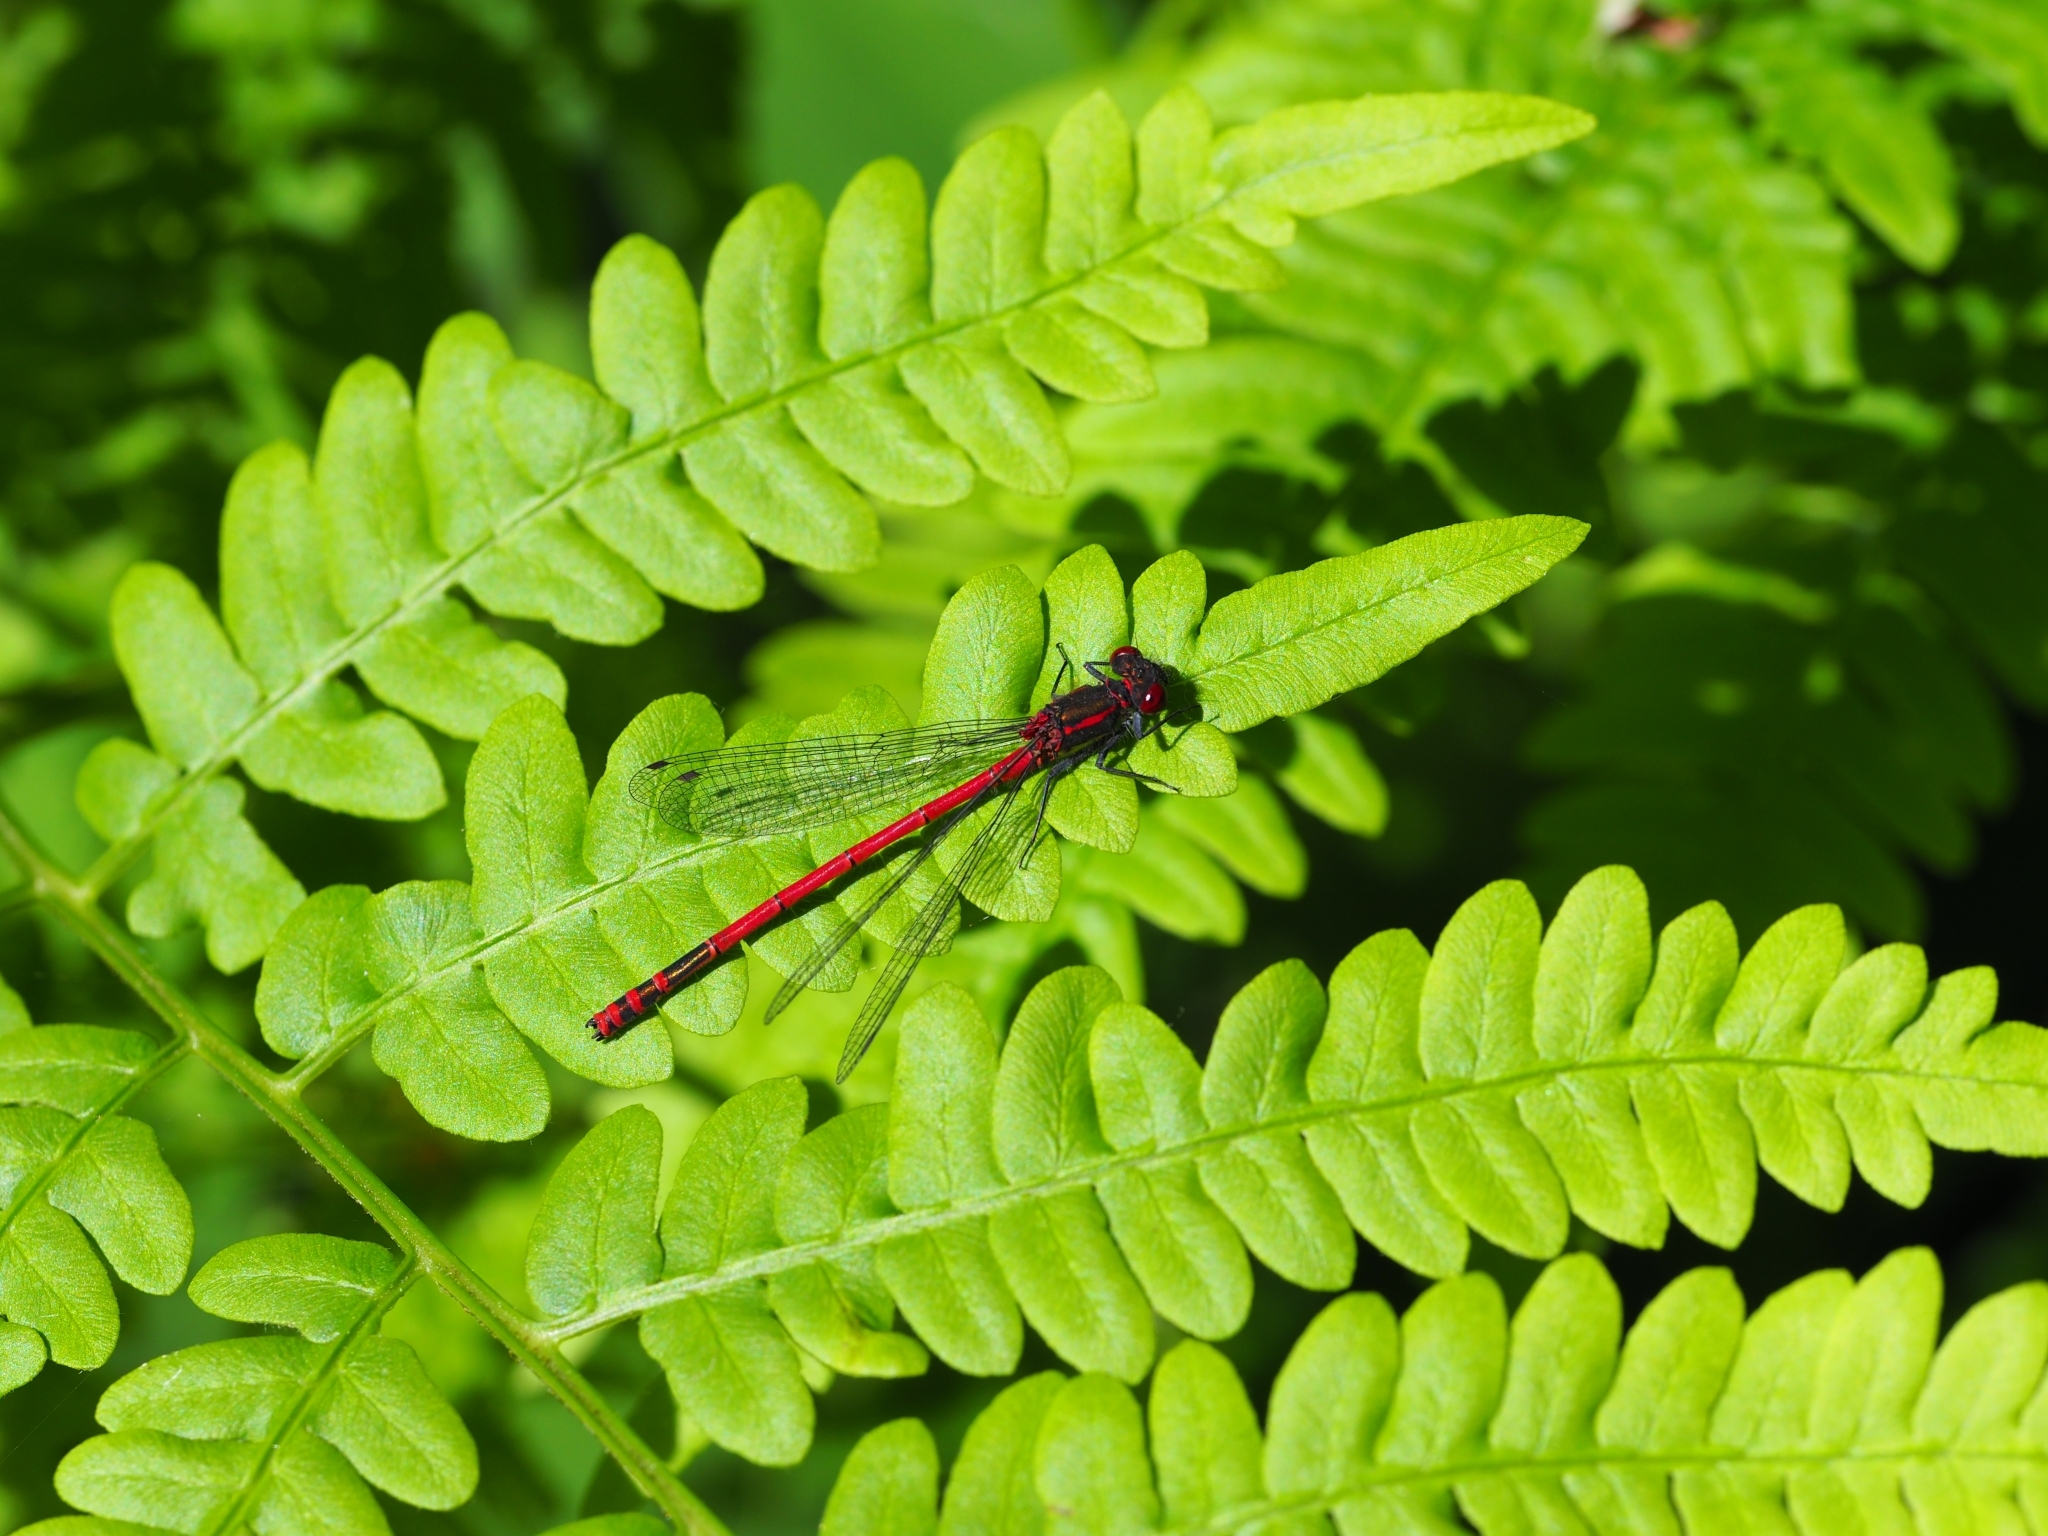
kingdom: Animalia
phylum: Arthropoda
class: Insecta
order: Odonata
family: Coenagrionidae
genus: Pyrrhosoma
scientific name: Pyrrhosoma nymphula
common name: Large red damsel
